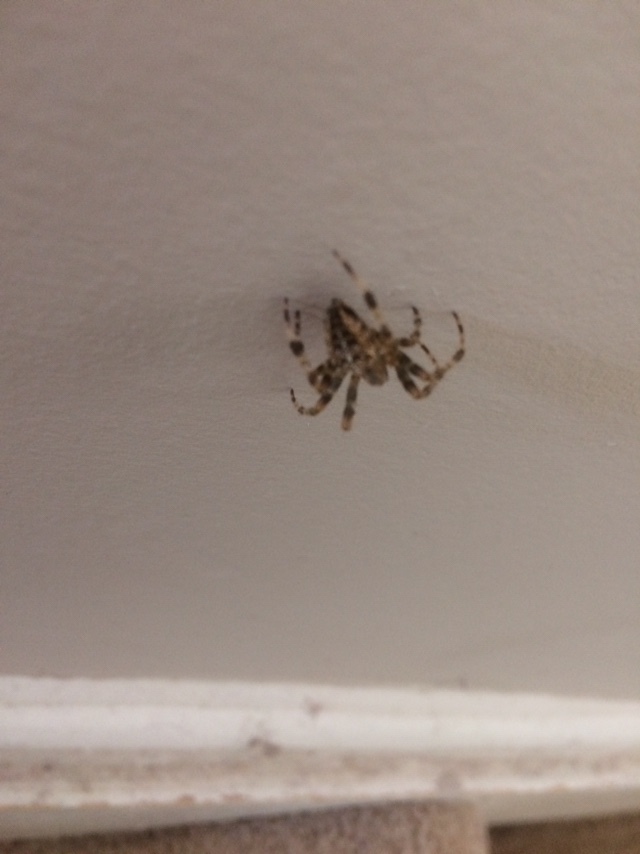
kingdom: Animalia
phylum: Arthropoda
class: Arachnida
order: Araneae
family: Araneidae
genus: Araneus
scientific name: Araneus diadematus
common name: Cross orbweaver
